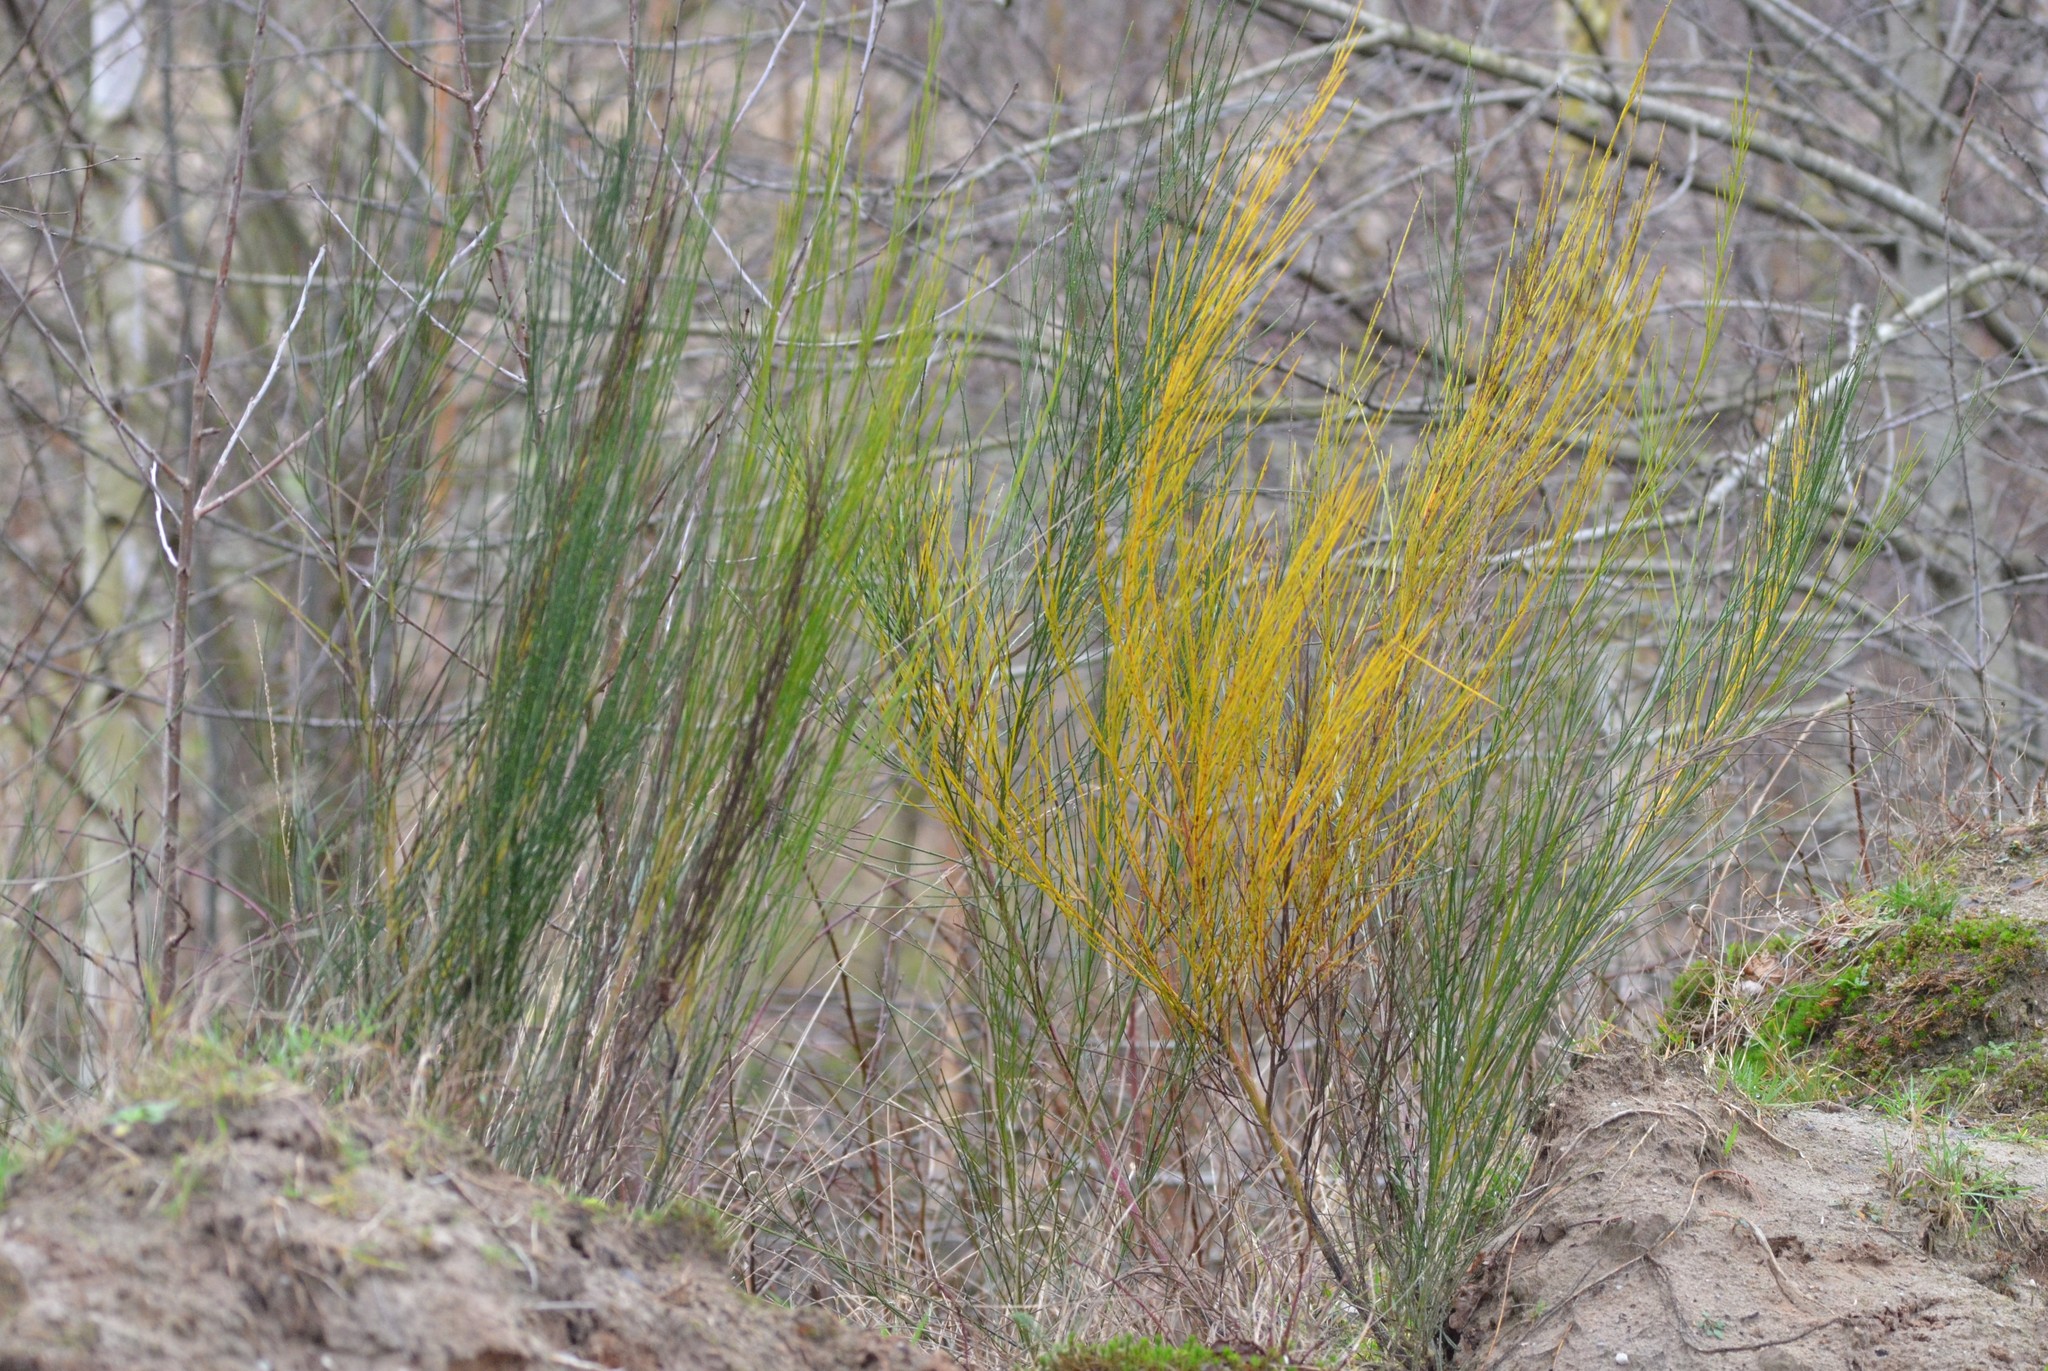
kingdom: Plantae
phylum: Tracheophyta
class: Magnoliopsida
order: Fabales
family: Fabaceae
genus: Cytisus
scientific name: Cytisus scoparius
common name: Scotch broom
